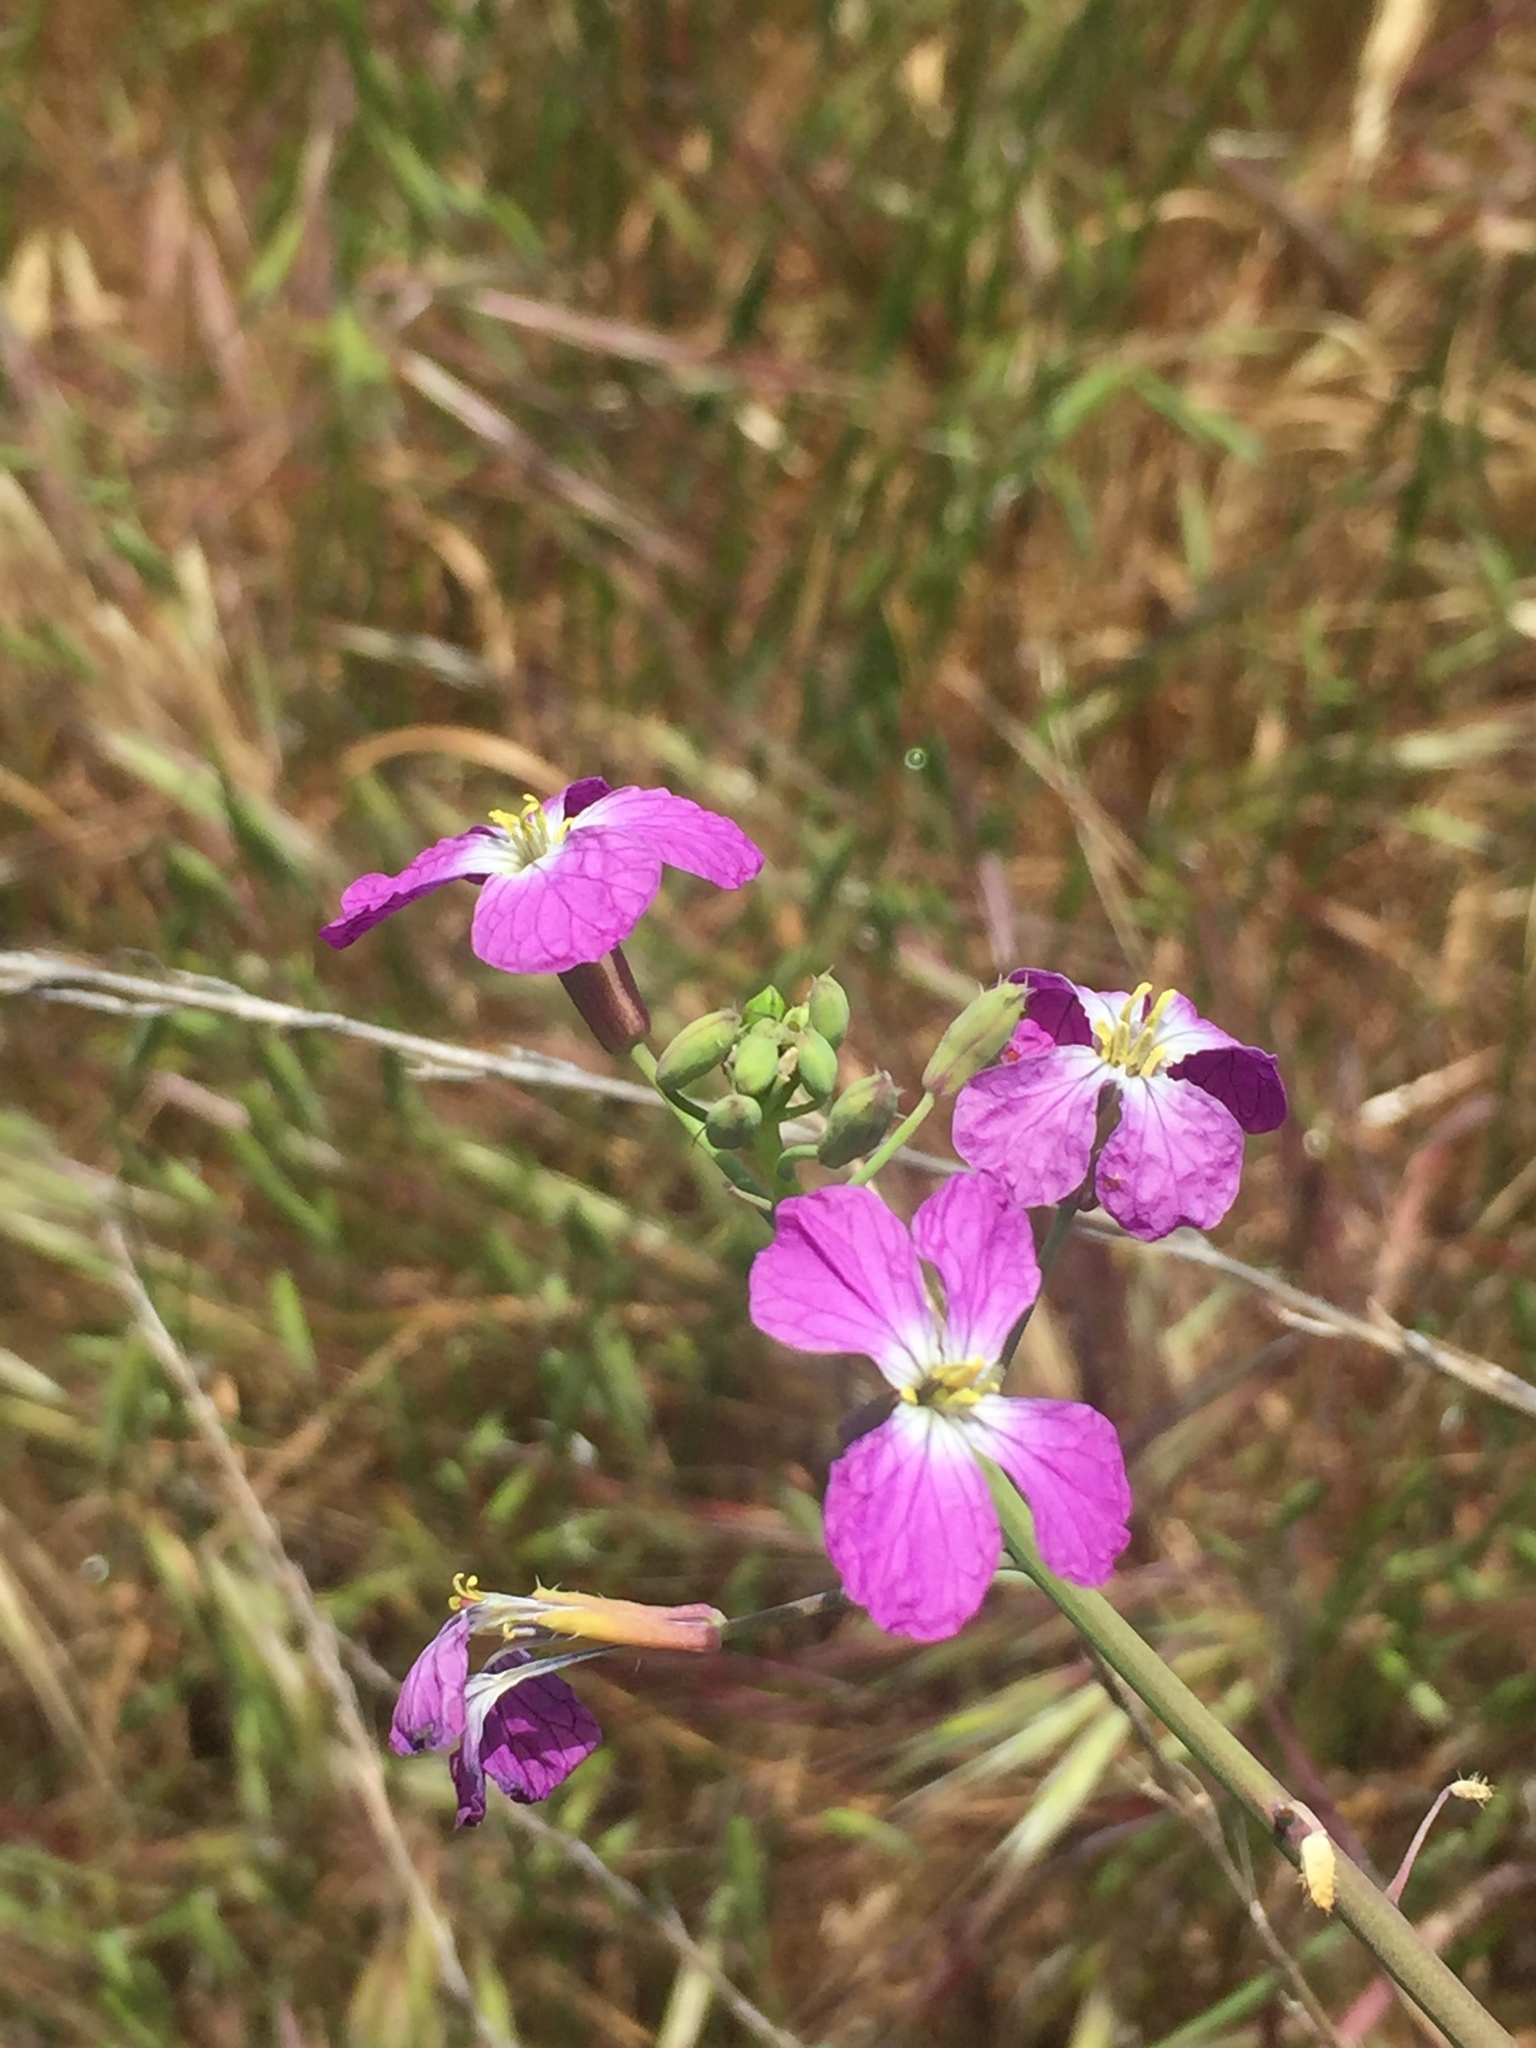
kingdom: Plantae
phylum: Tracheophyta
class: Magnoliopsida
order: Brassicales
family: Brassicaceae
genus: Raphanus
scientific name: Raphanus sativus
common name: Cultivated radish
